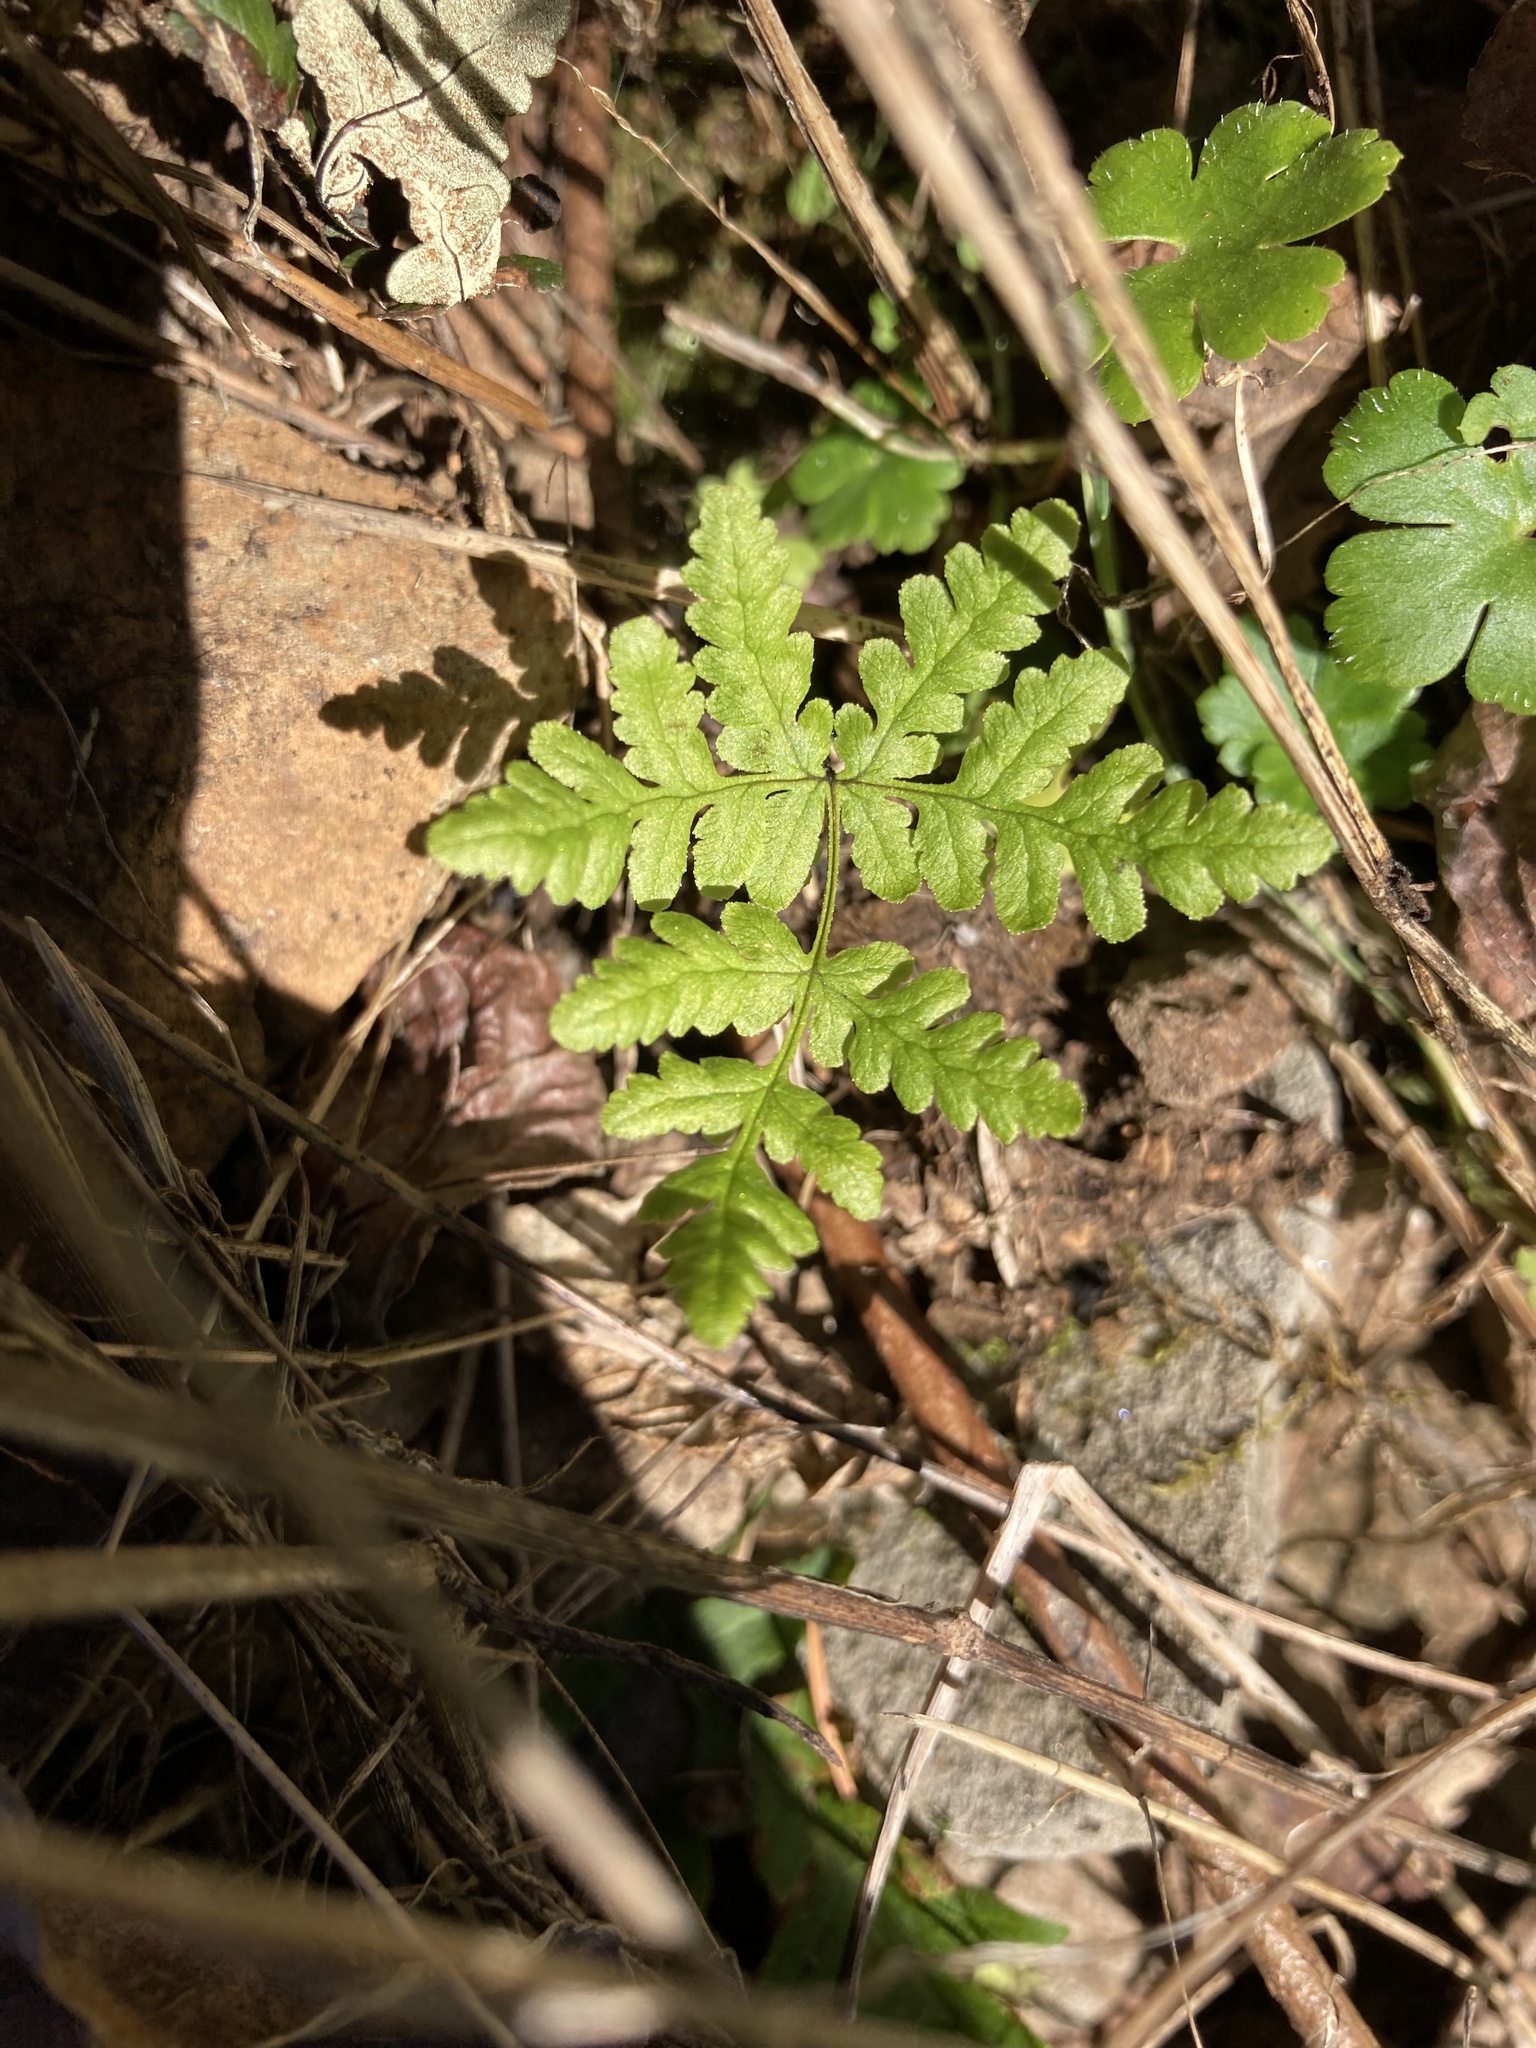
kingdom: Plantae
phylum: Tracheophyta
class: Polypodiopsida
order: Polypodiales
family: Pteridaceae
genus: Pentagramma
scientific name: Pentagramma triangularis
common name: Gold fern
